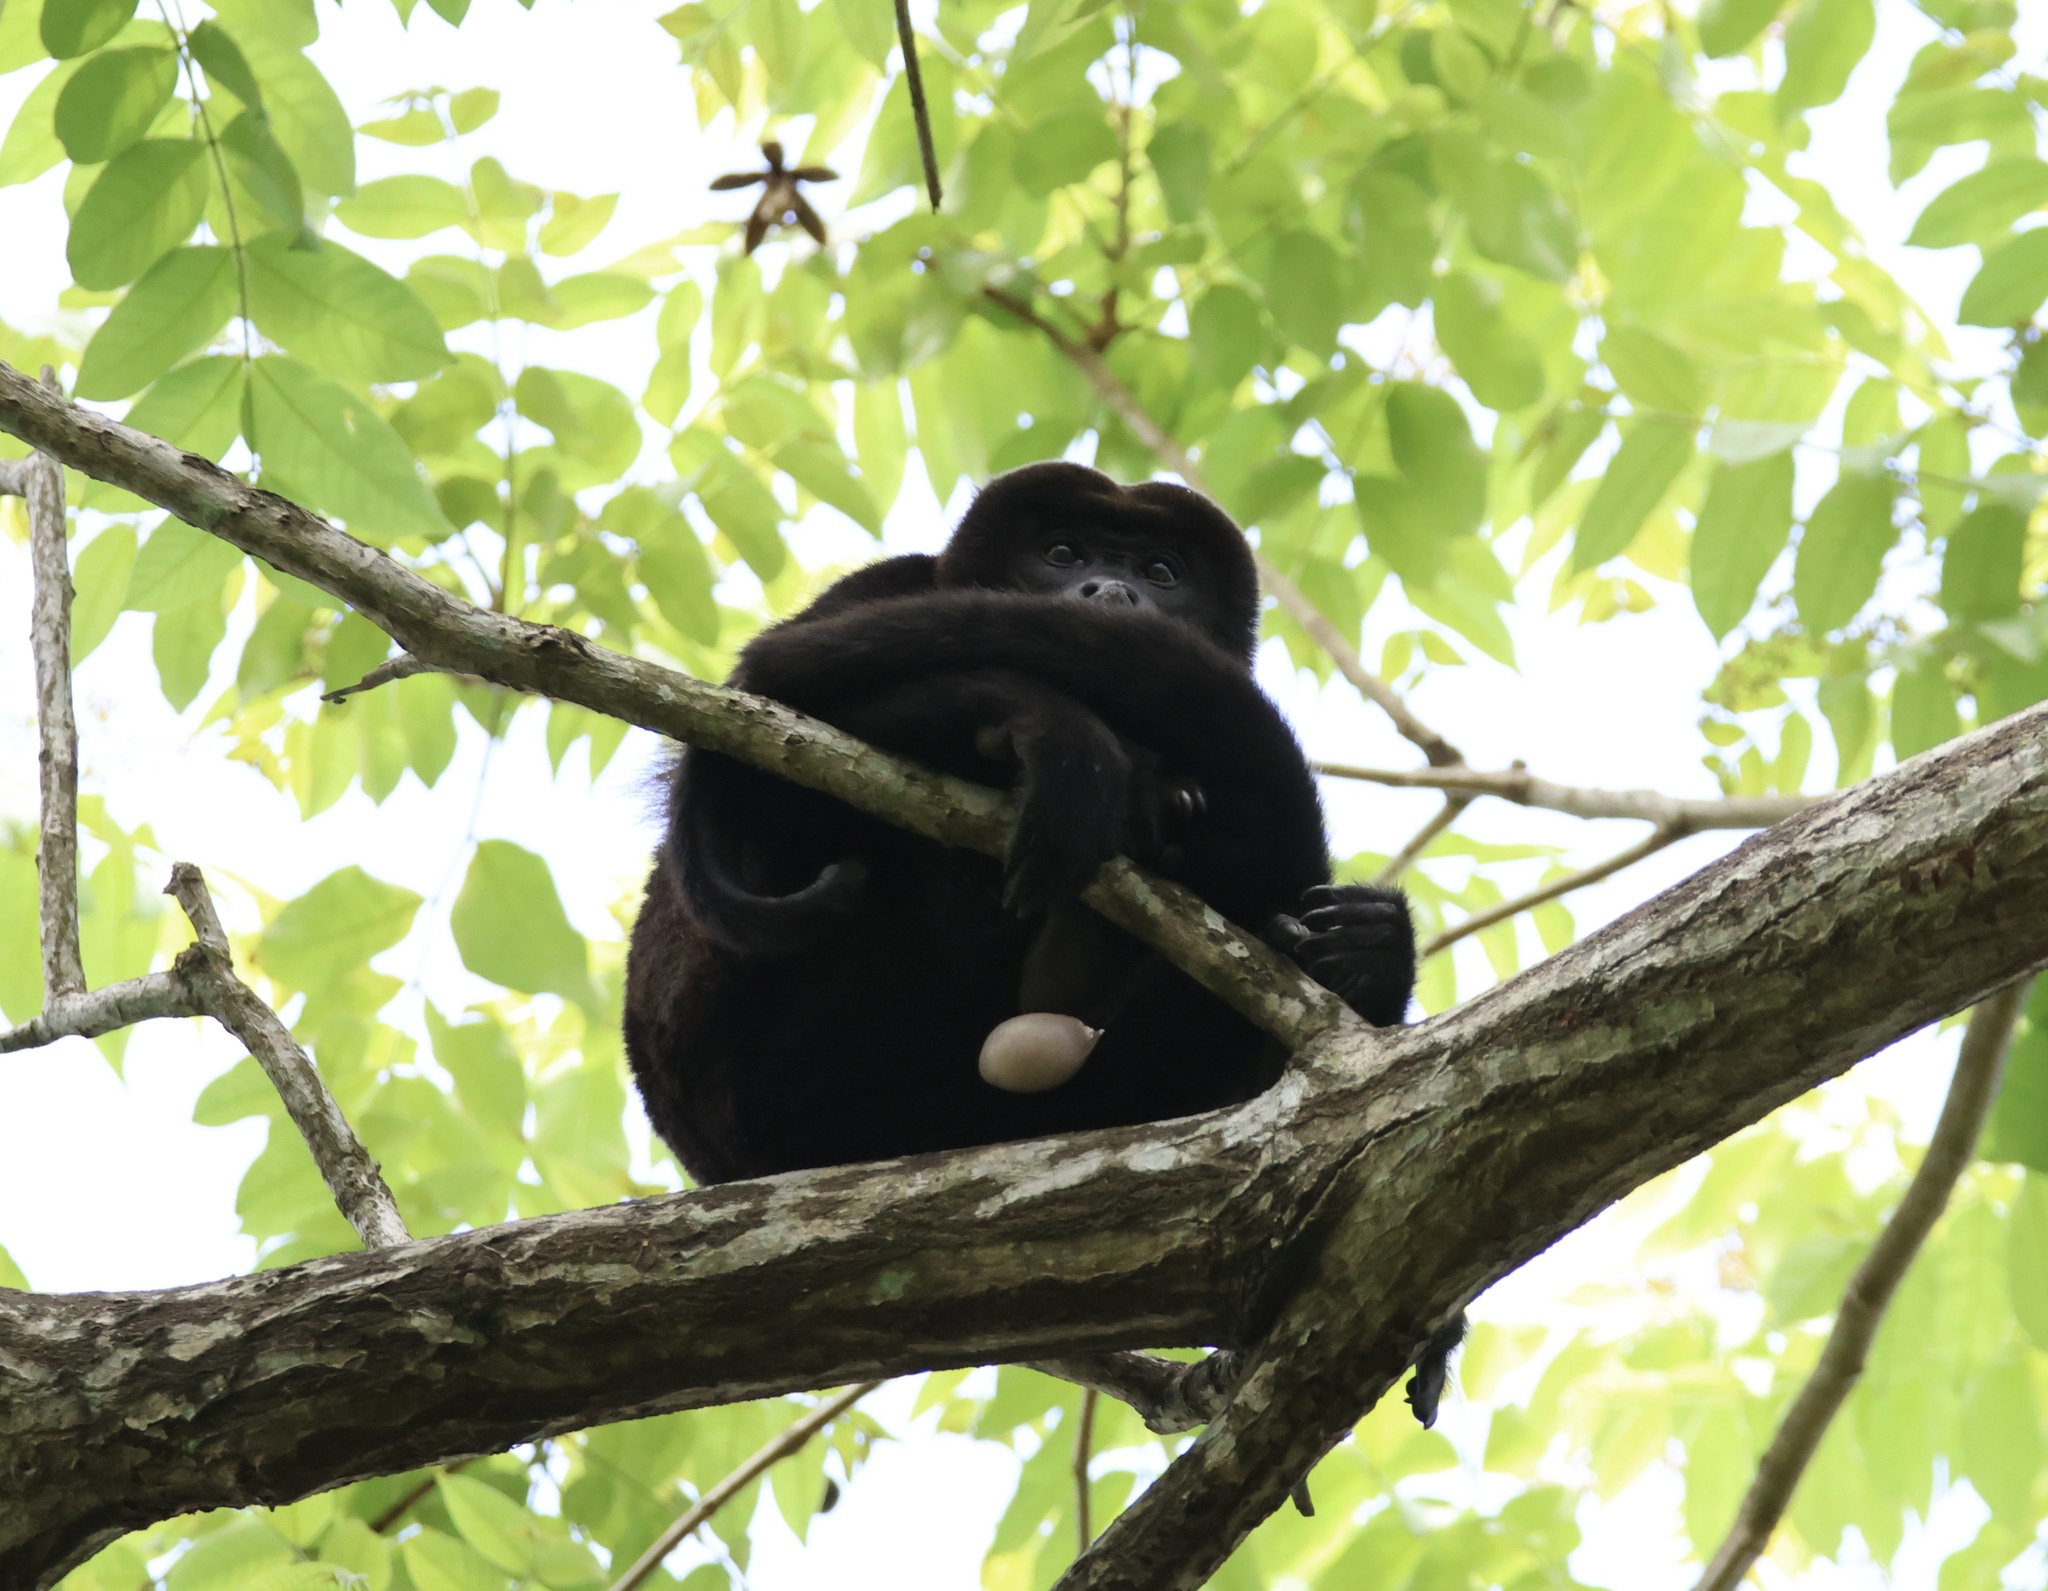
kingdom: Animalia
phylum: Chordata
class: Mammalia
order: Primates
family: Atelidae
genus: Alouatta
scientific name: Alouatta palliata
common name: Mantled howler
